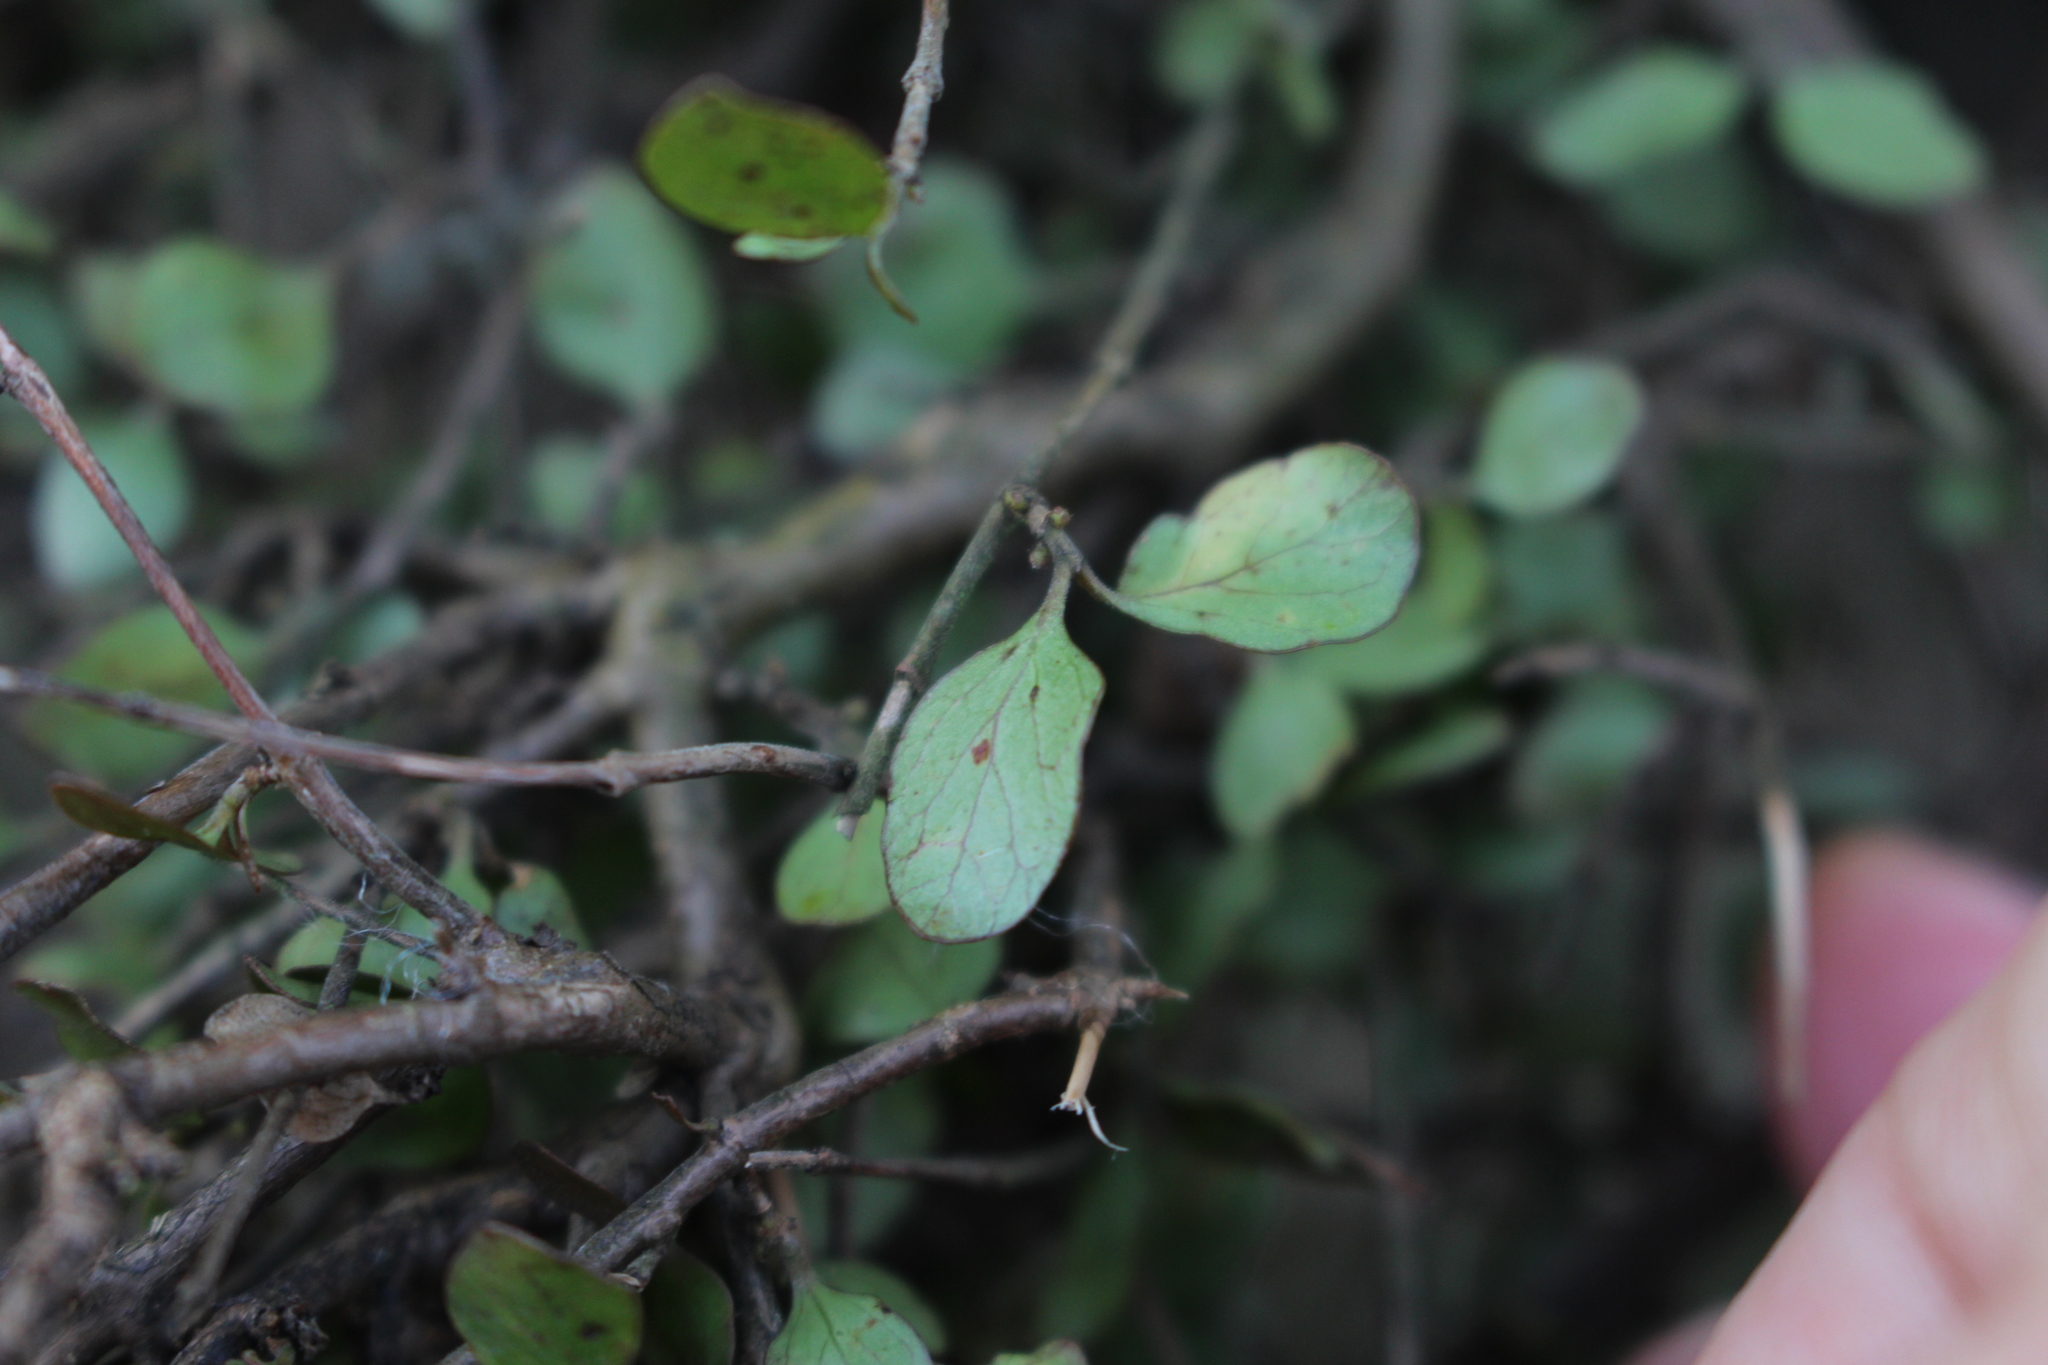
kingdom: Plantae
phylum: Tracheophyta
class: Magnoliopsida
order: Gentianales
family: Rubiaceae
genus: Coprosma
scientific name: Coprosma rhamnoides
